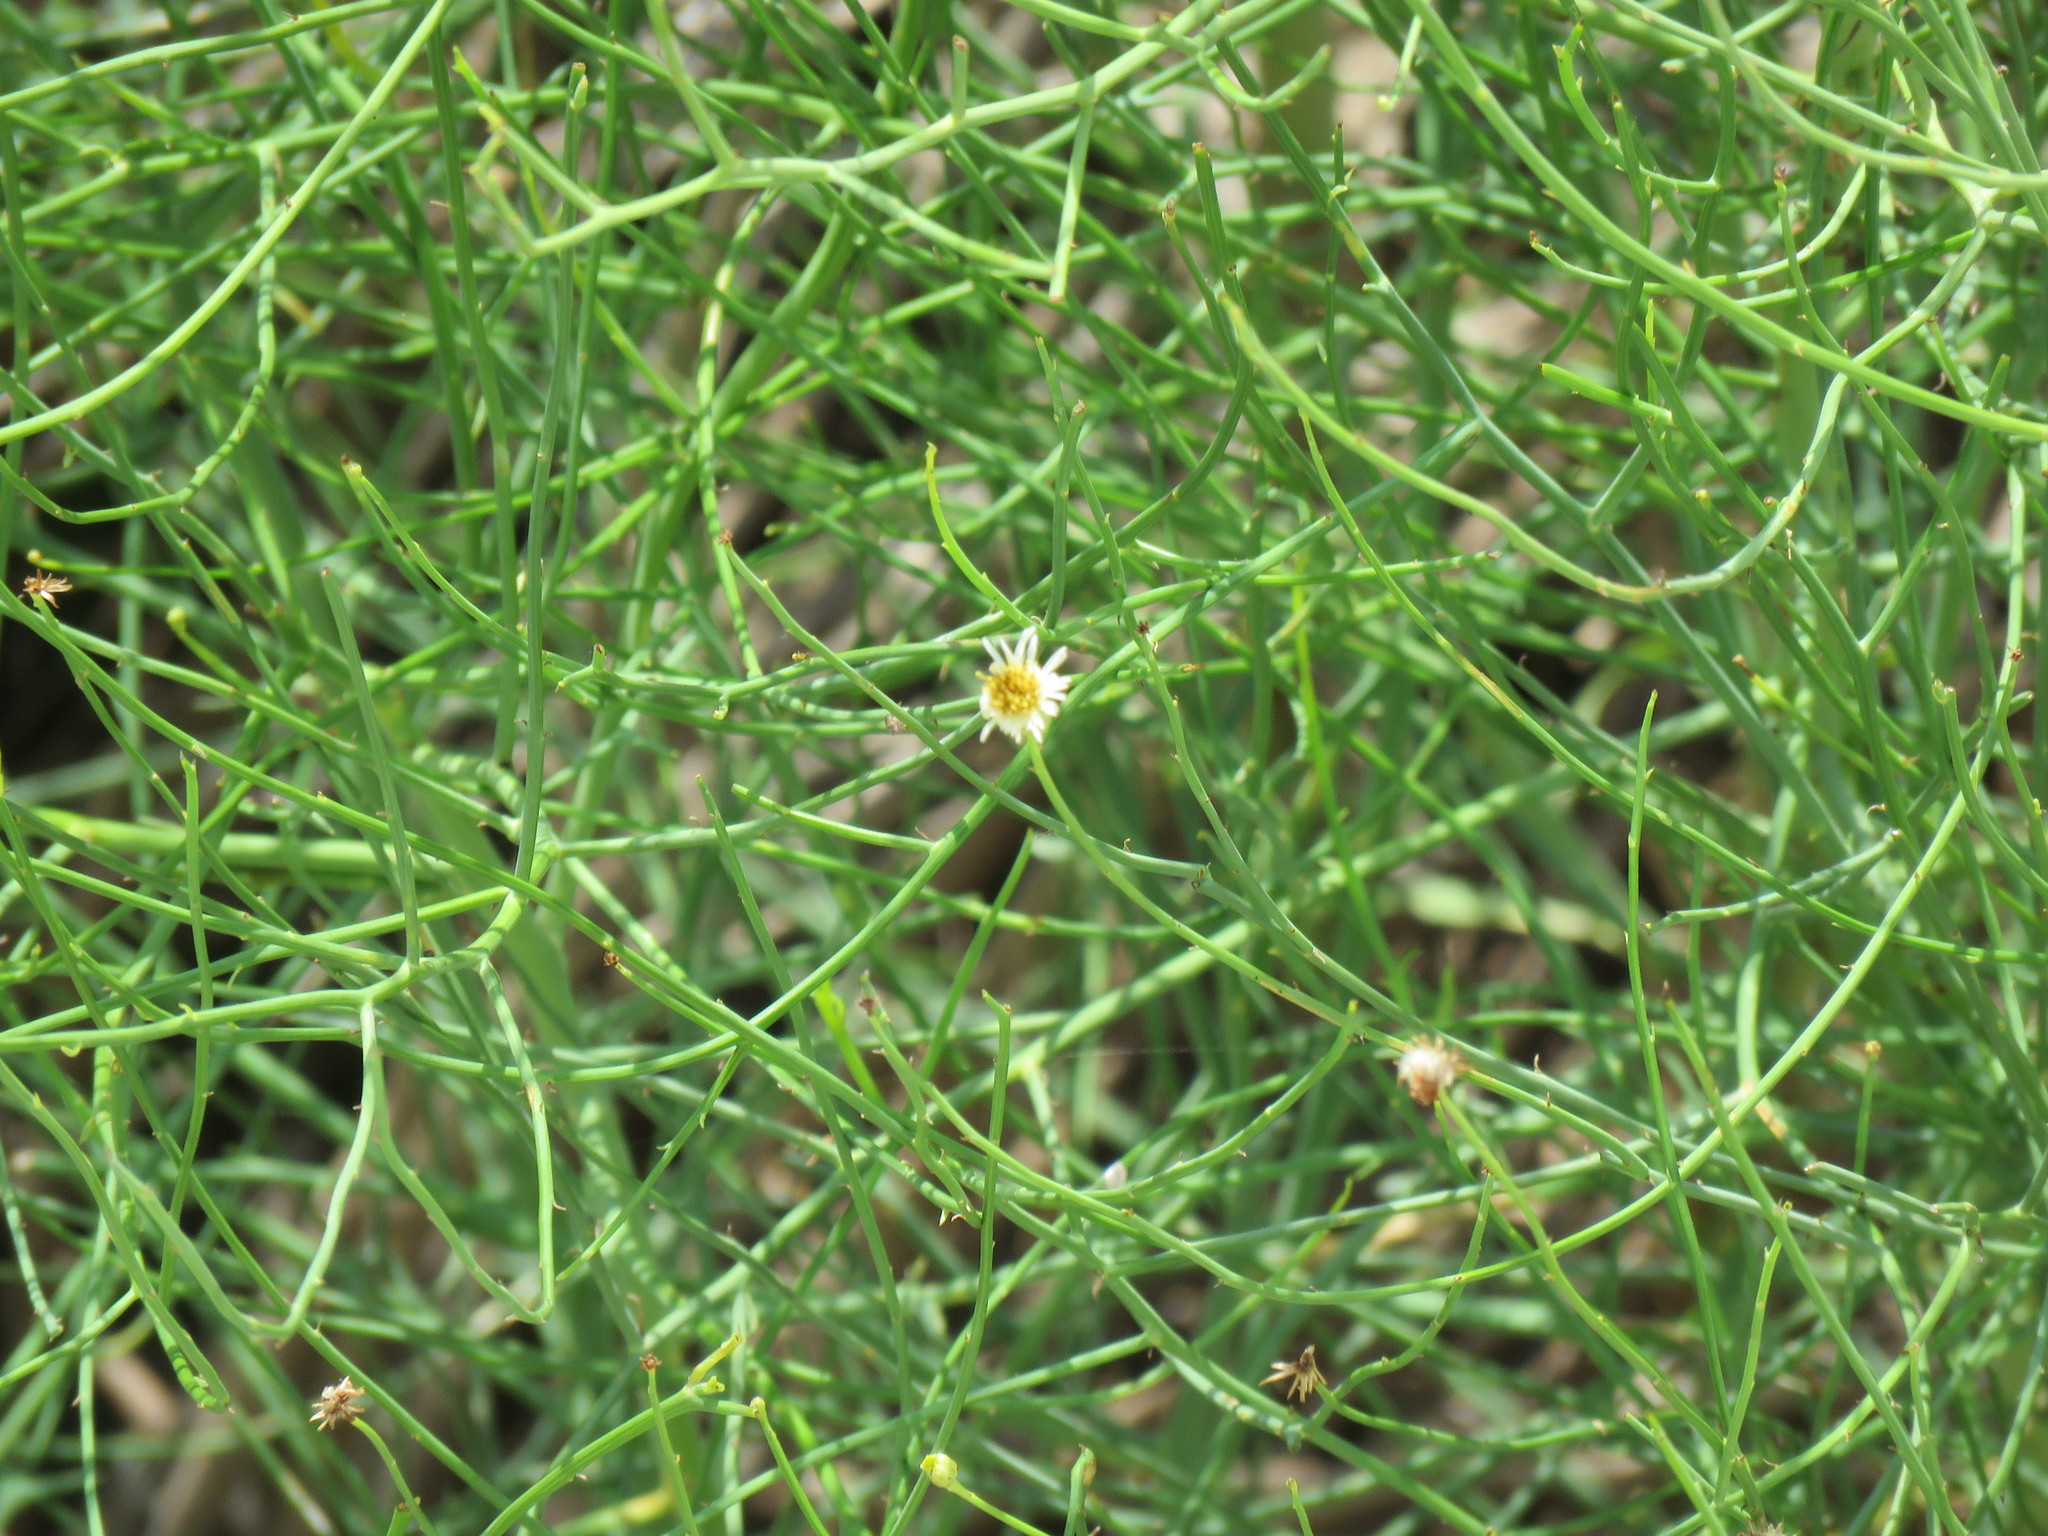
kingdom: Plantae
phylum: Tracheophyta
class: Magnoliopsida
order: Asterales
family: Asteraceae
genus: Chloracantha
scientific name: Chloracantha spinosa
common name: Mexican devilweed
